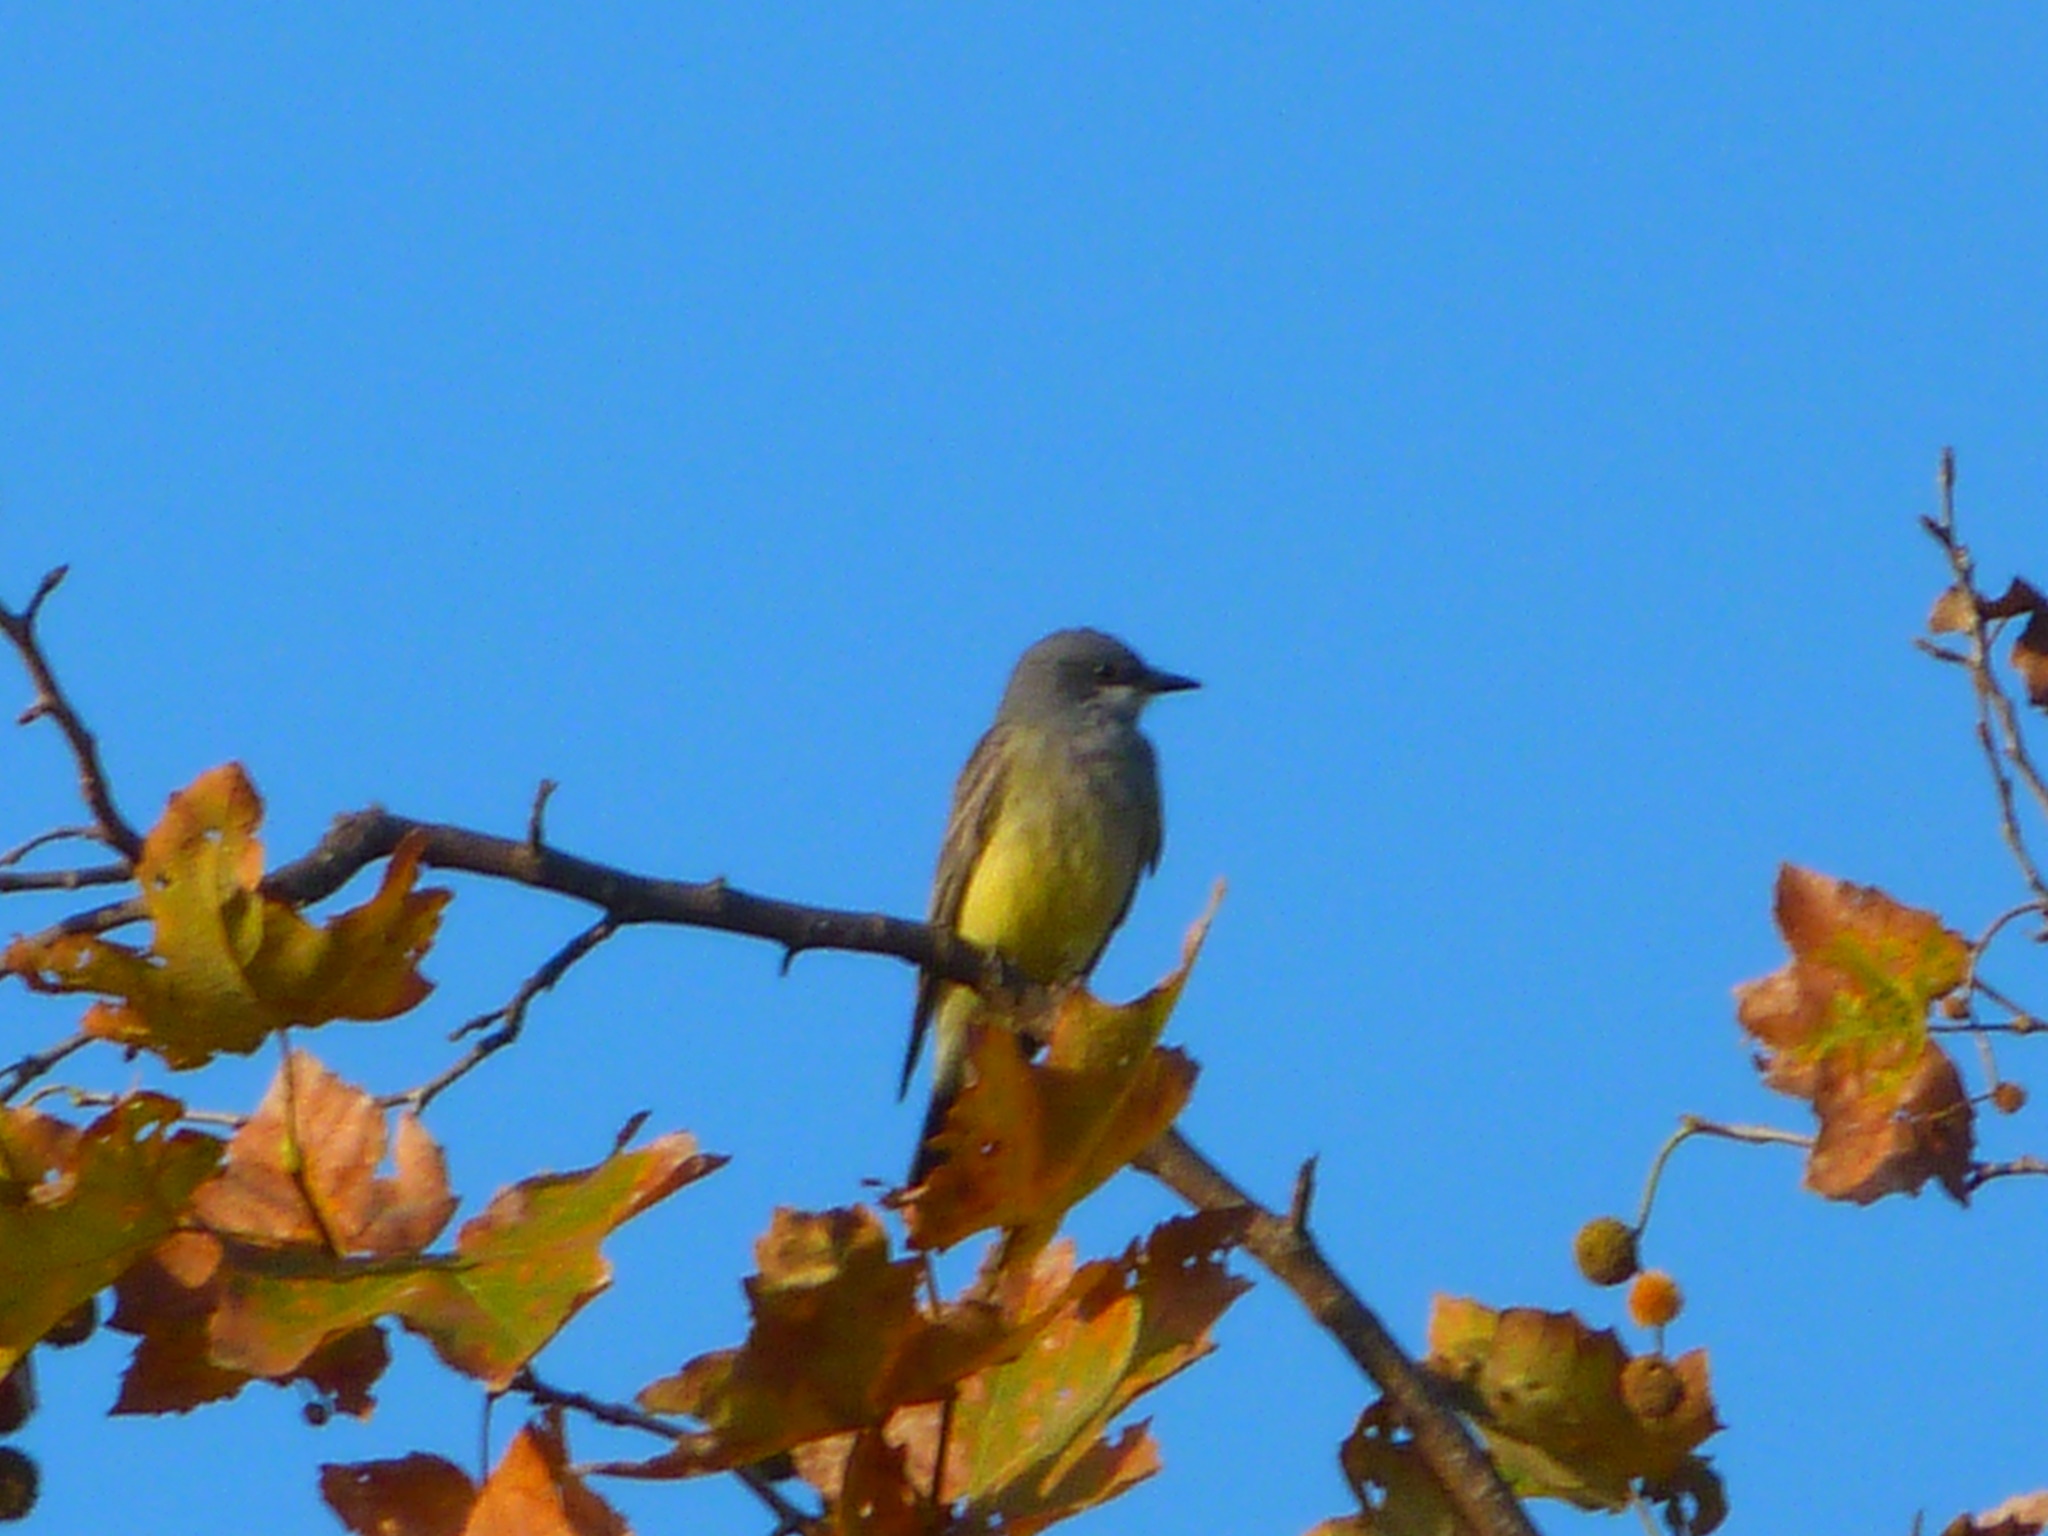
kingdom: Animalia
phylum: Chordata
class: Aves
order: Passeriformes
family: Tyrannidae
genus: Tyrannus
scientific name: Tyrannus vociferans
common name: Cassin's kingbird
